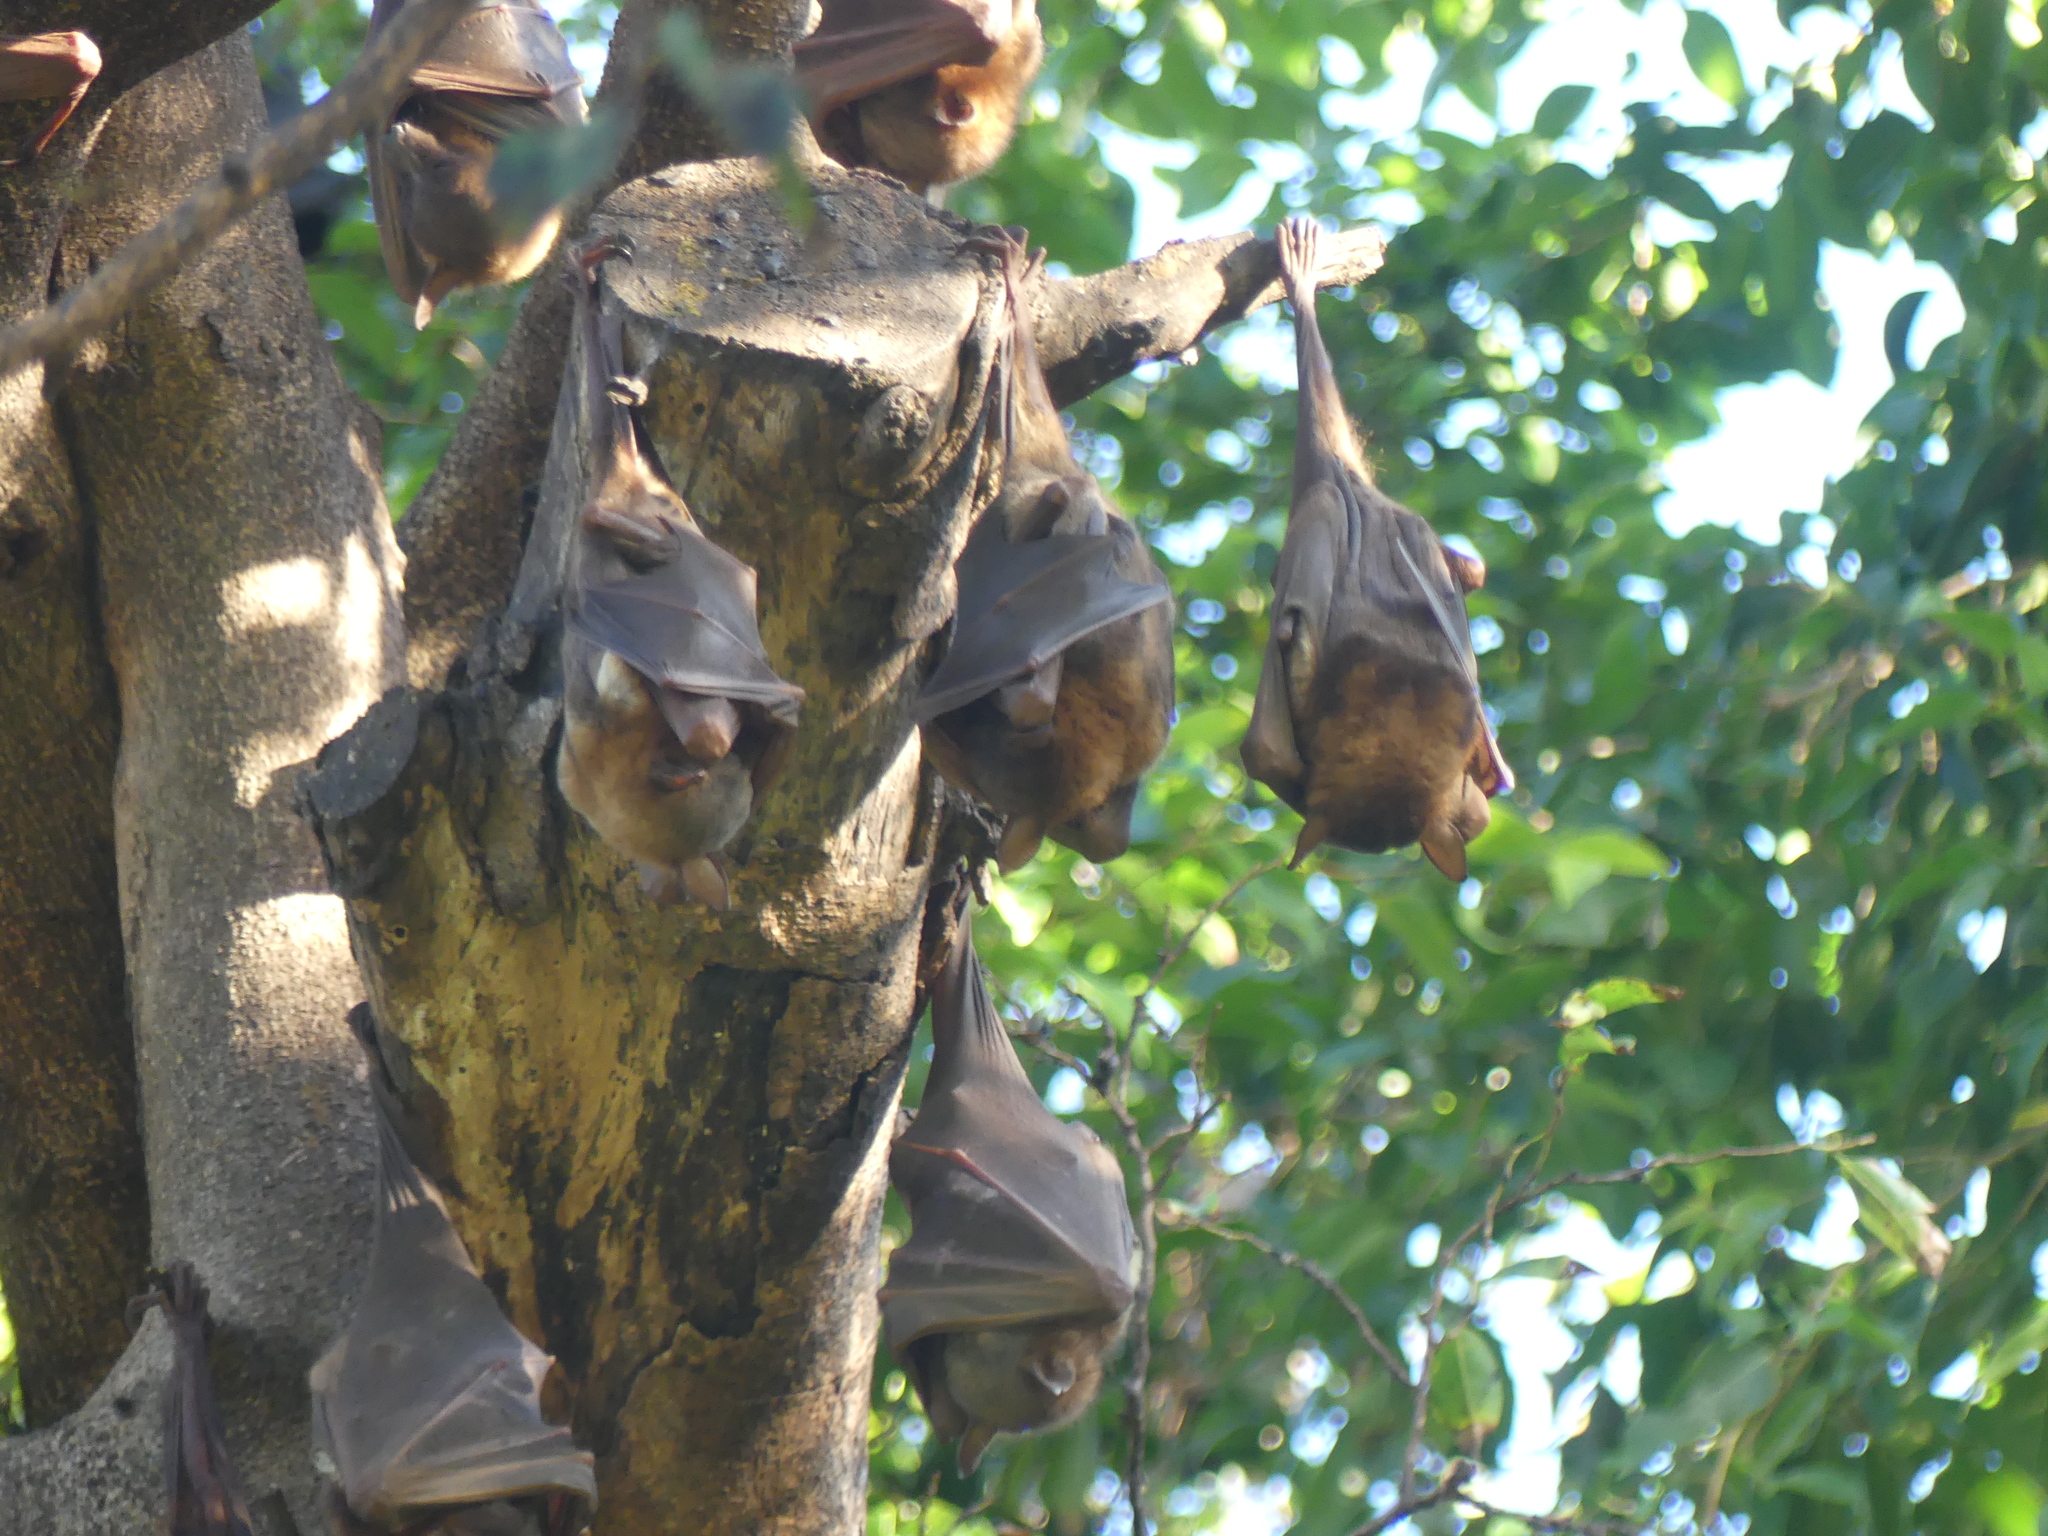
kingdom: Animalia
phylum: Chordata
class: Mammalia
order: Chiroptera
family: Pteropodidae
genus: Pteropus
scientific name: Pteropus scapulatus
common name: Little red flying fox
